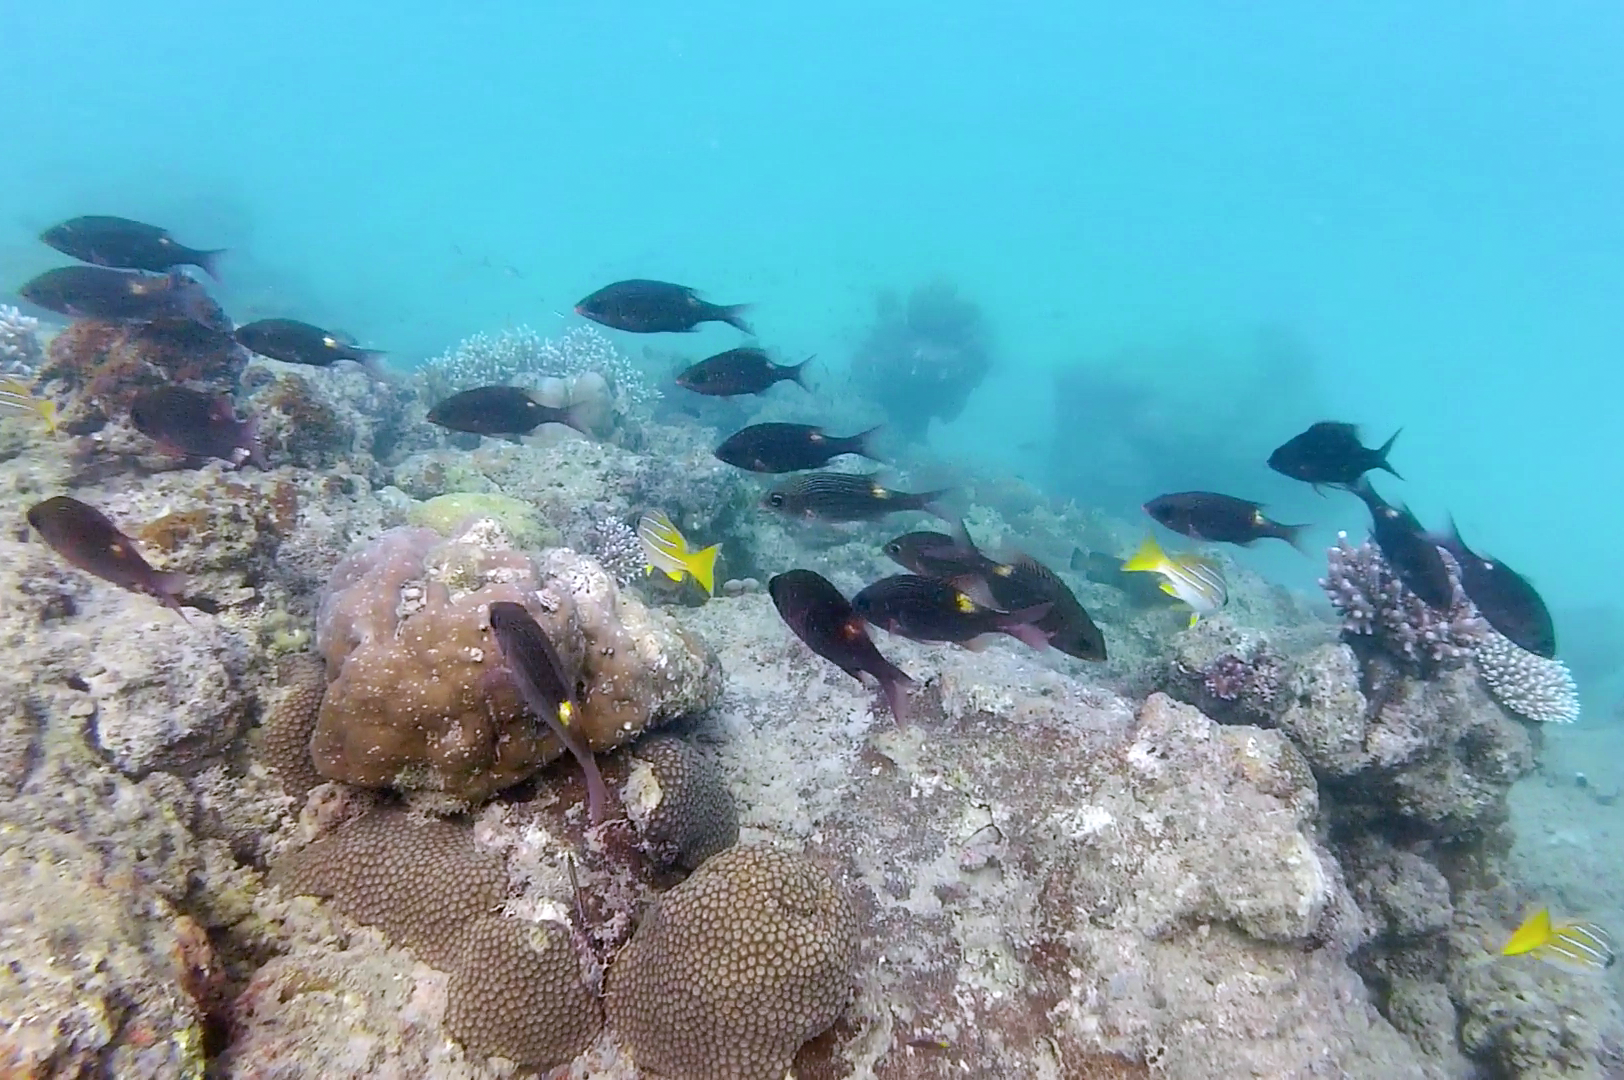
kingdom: Animalia
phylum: Chordata
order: Perciformes
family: Lethrinidae
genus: Gnathodentex
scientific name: Gnathodentex aureolineatus
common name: Gold-lined sea bream
